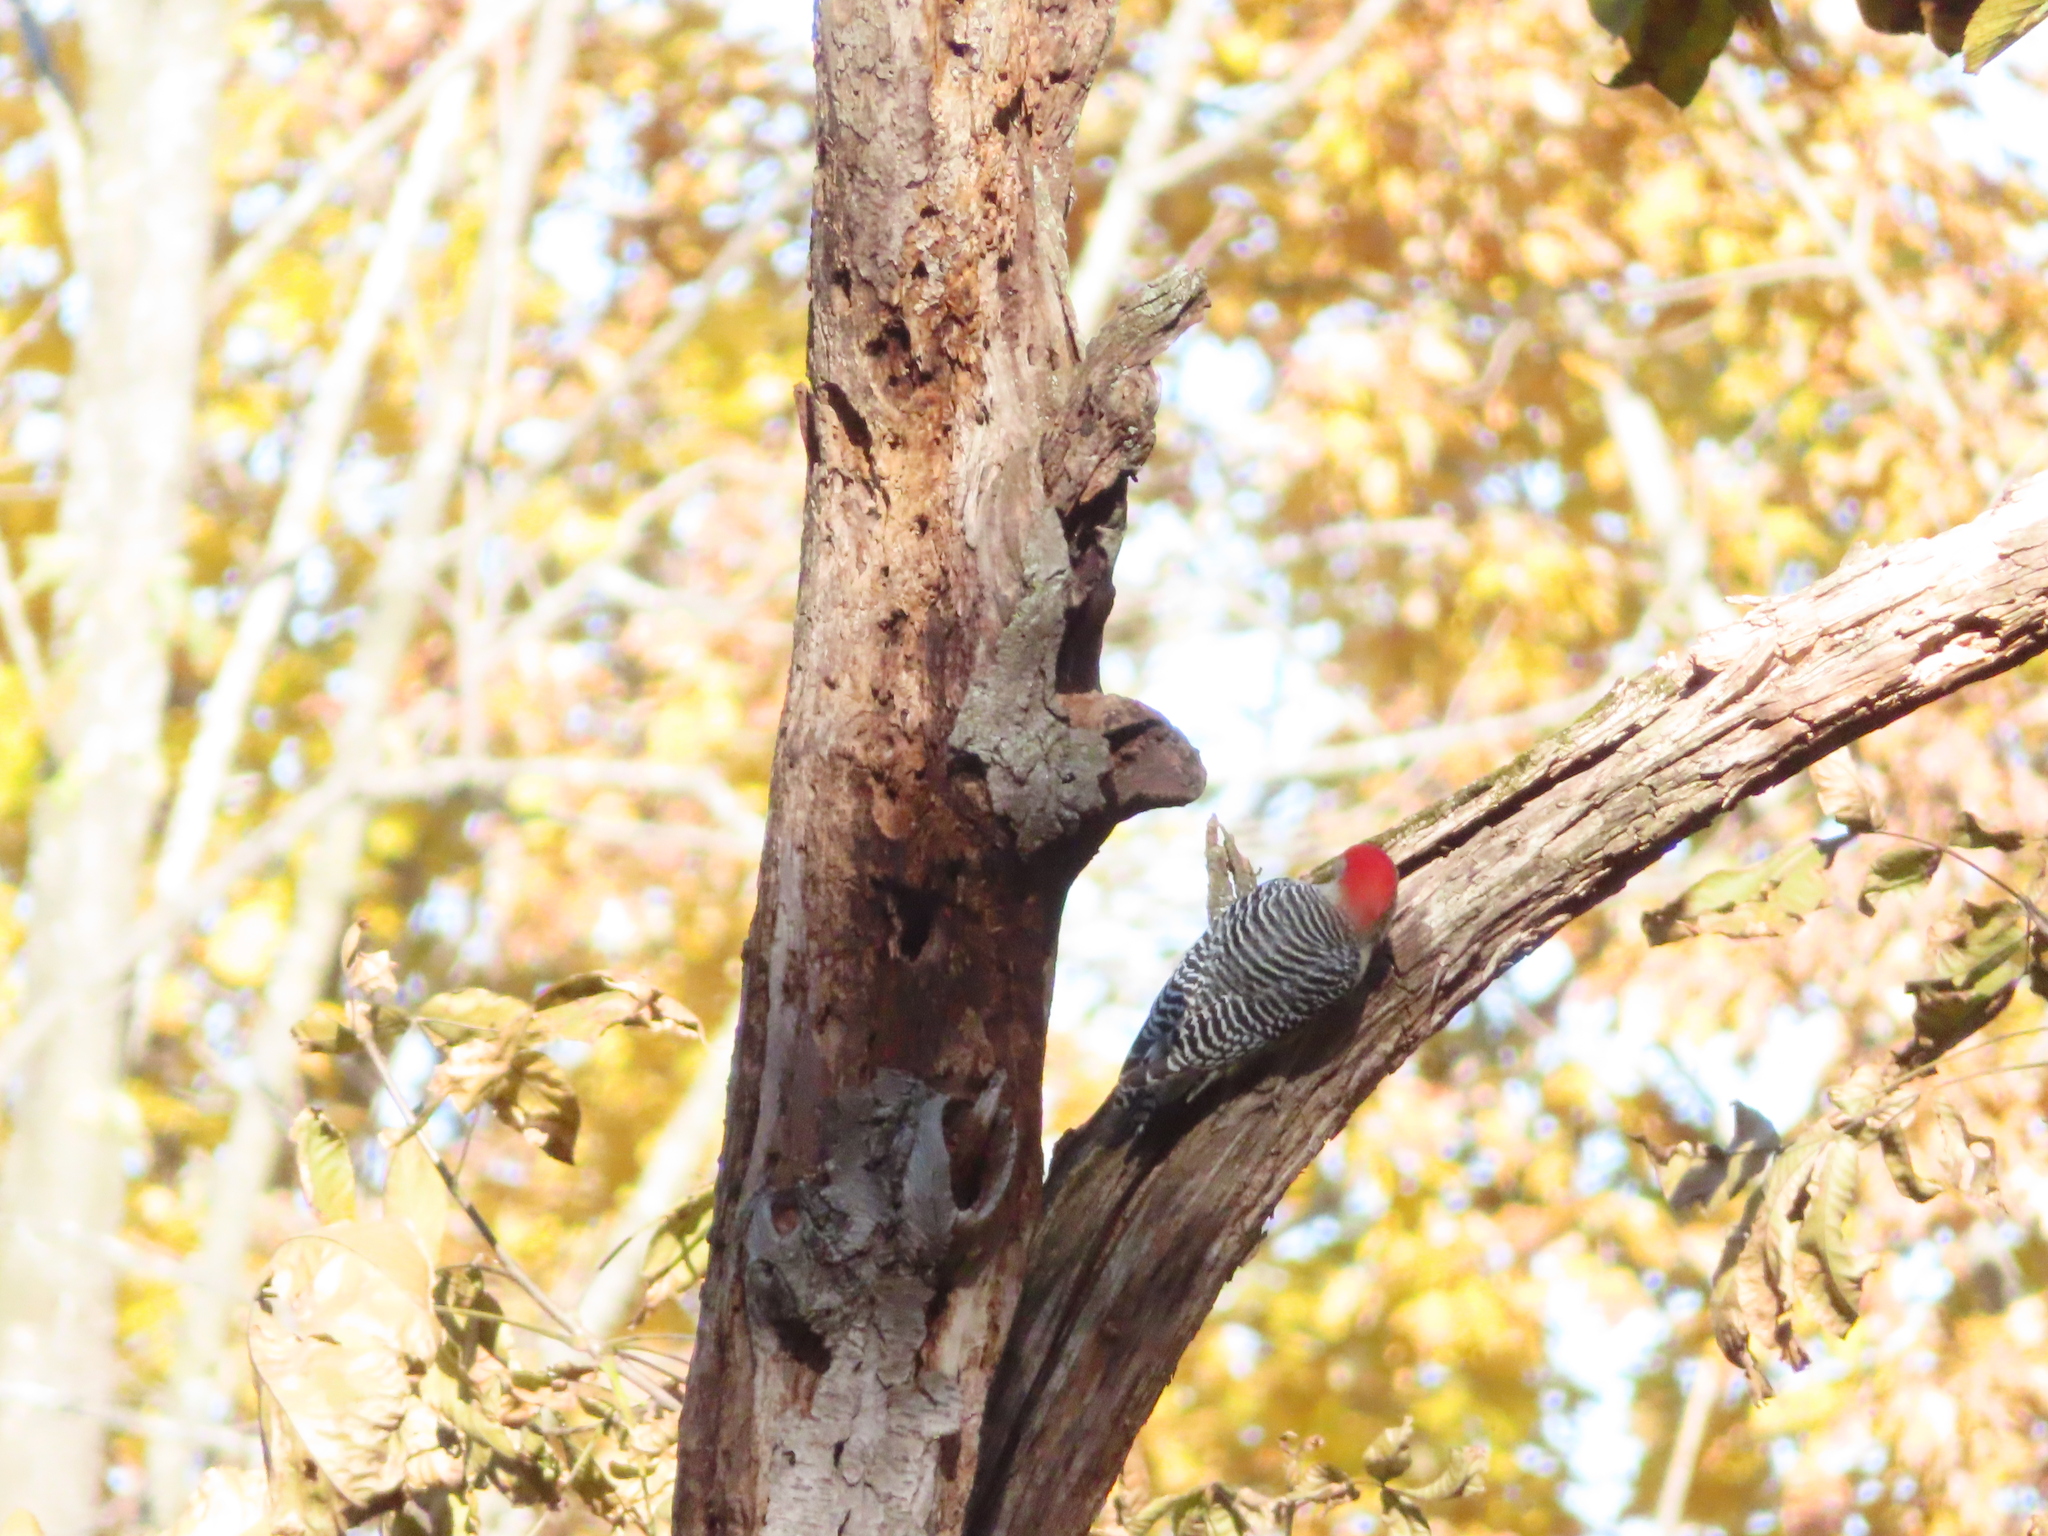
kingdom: Animalia
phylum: Chordata
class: Aves
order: Piciformes
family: Picidae
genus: Melanerpes
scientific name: Melanerpes carolinus
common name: Red-bellied woodpecker
